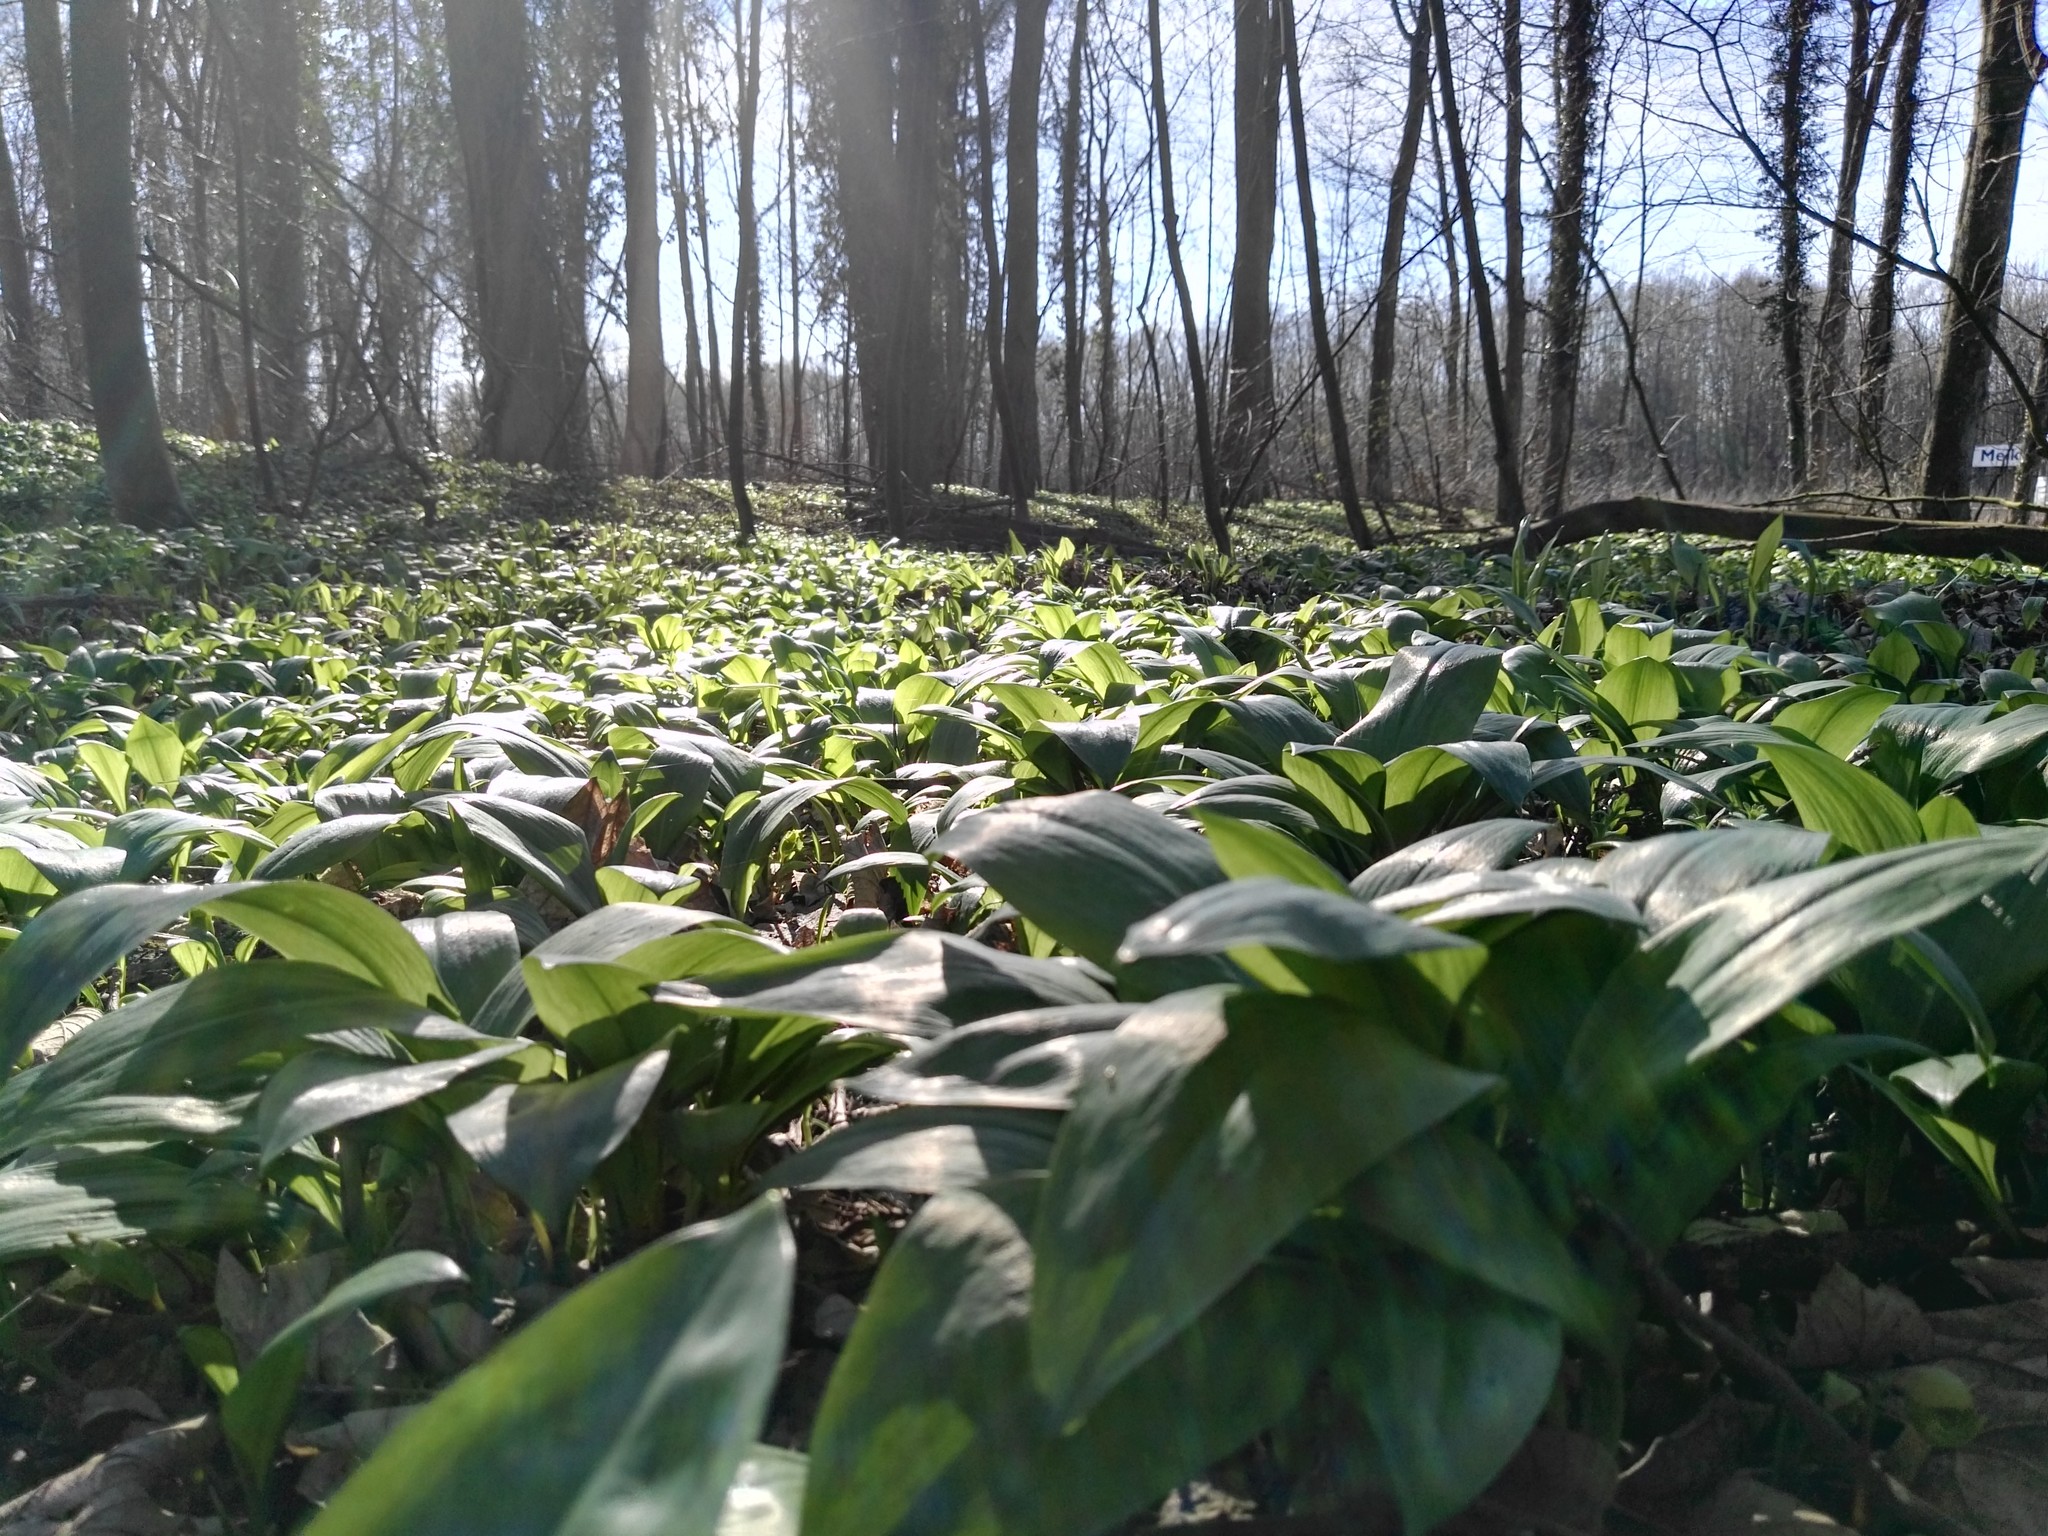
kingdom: Plantae
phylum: Tracheophyta
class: Liliopsida
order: Asparagales
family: Amaryllidaceae
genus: Allium
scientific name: Allium ursinum
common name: Ramsons
